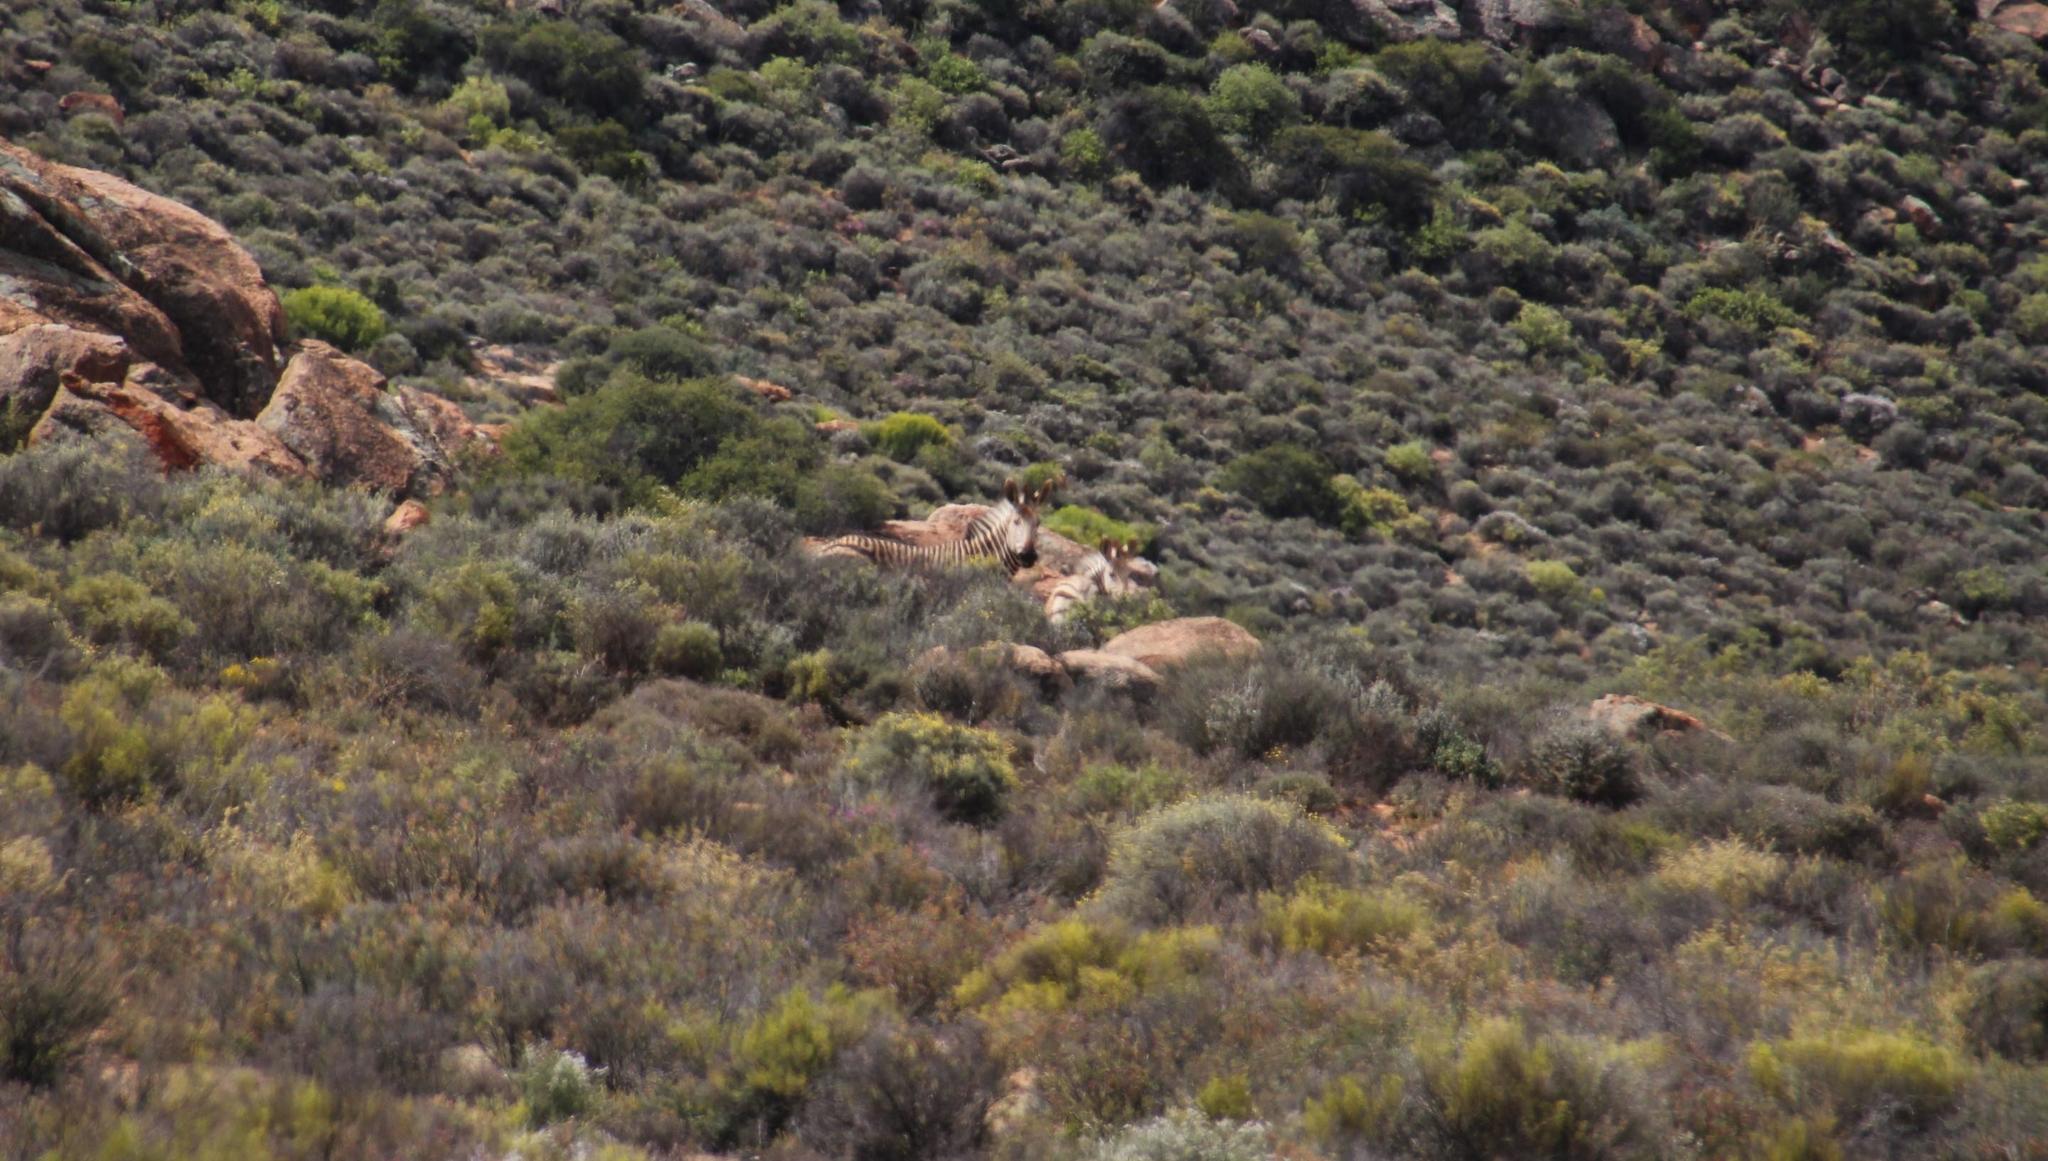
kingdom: Animalia
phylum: Chordata
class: Mammalia
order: Perissodactyla
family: Equidae
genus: Equus
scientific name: Equus hartmannae
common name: Hartmann's mountain zebra
